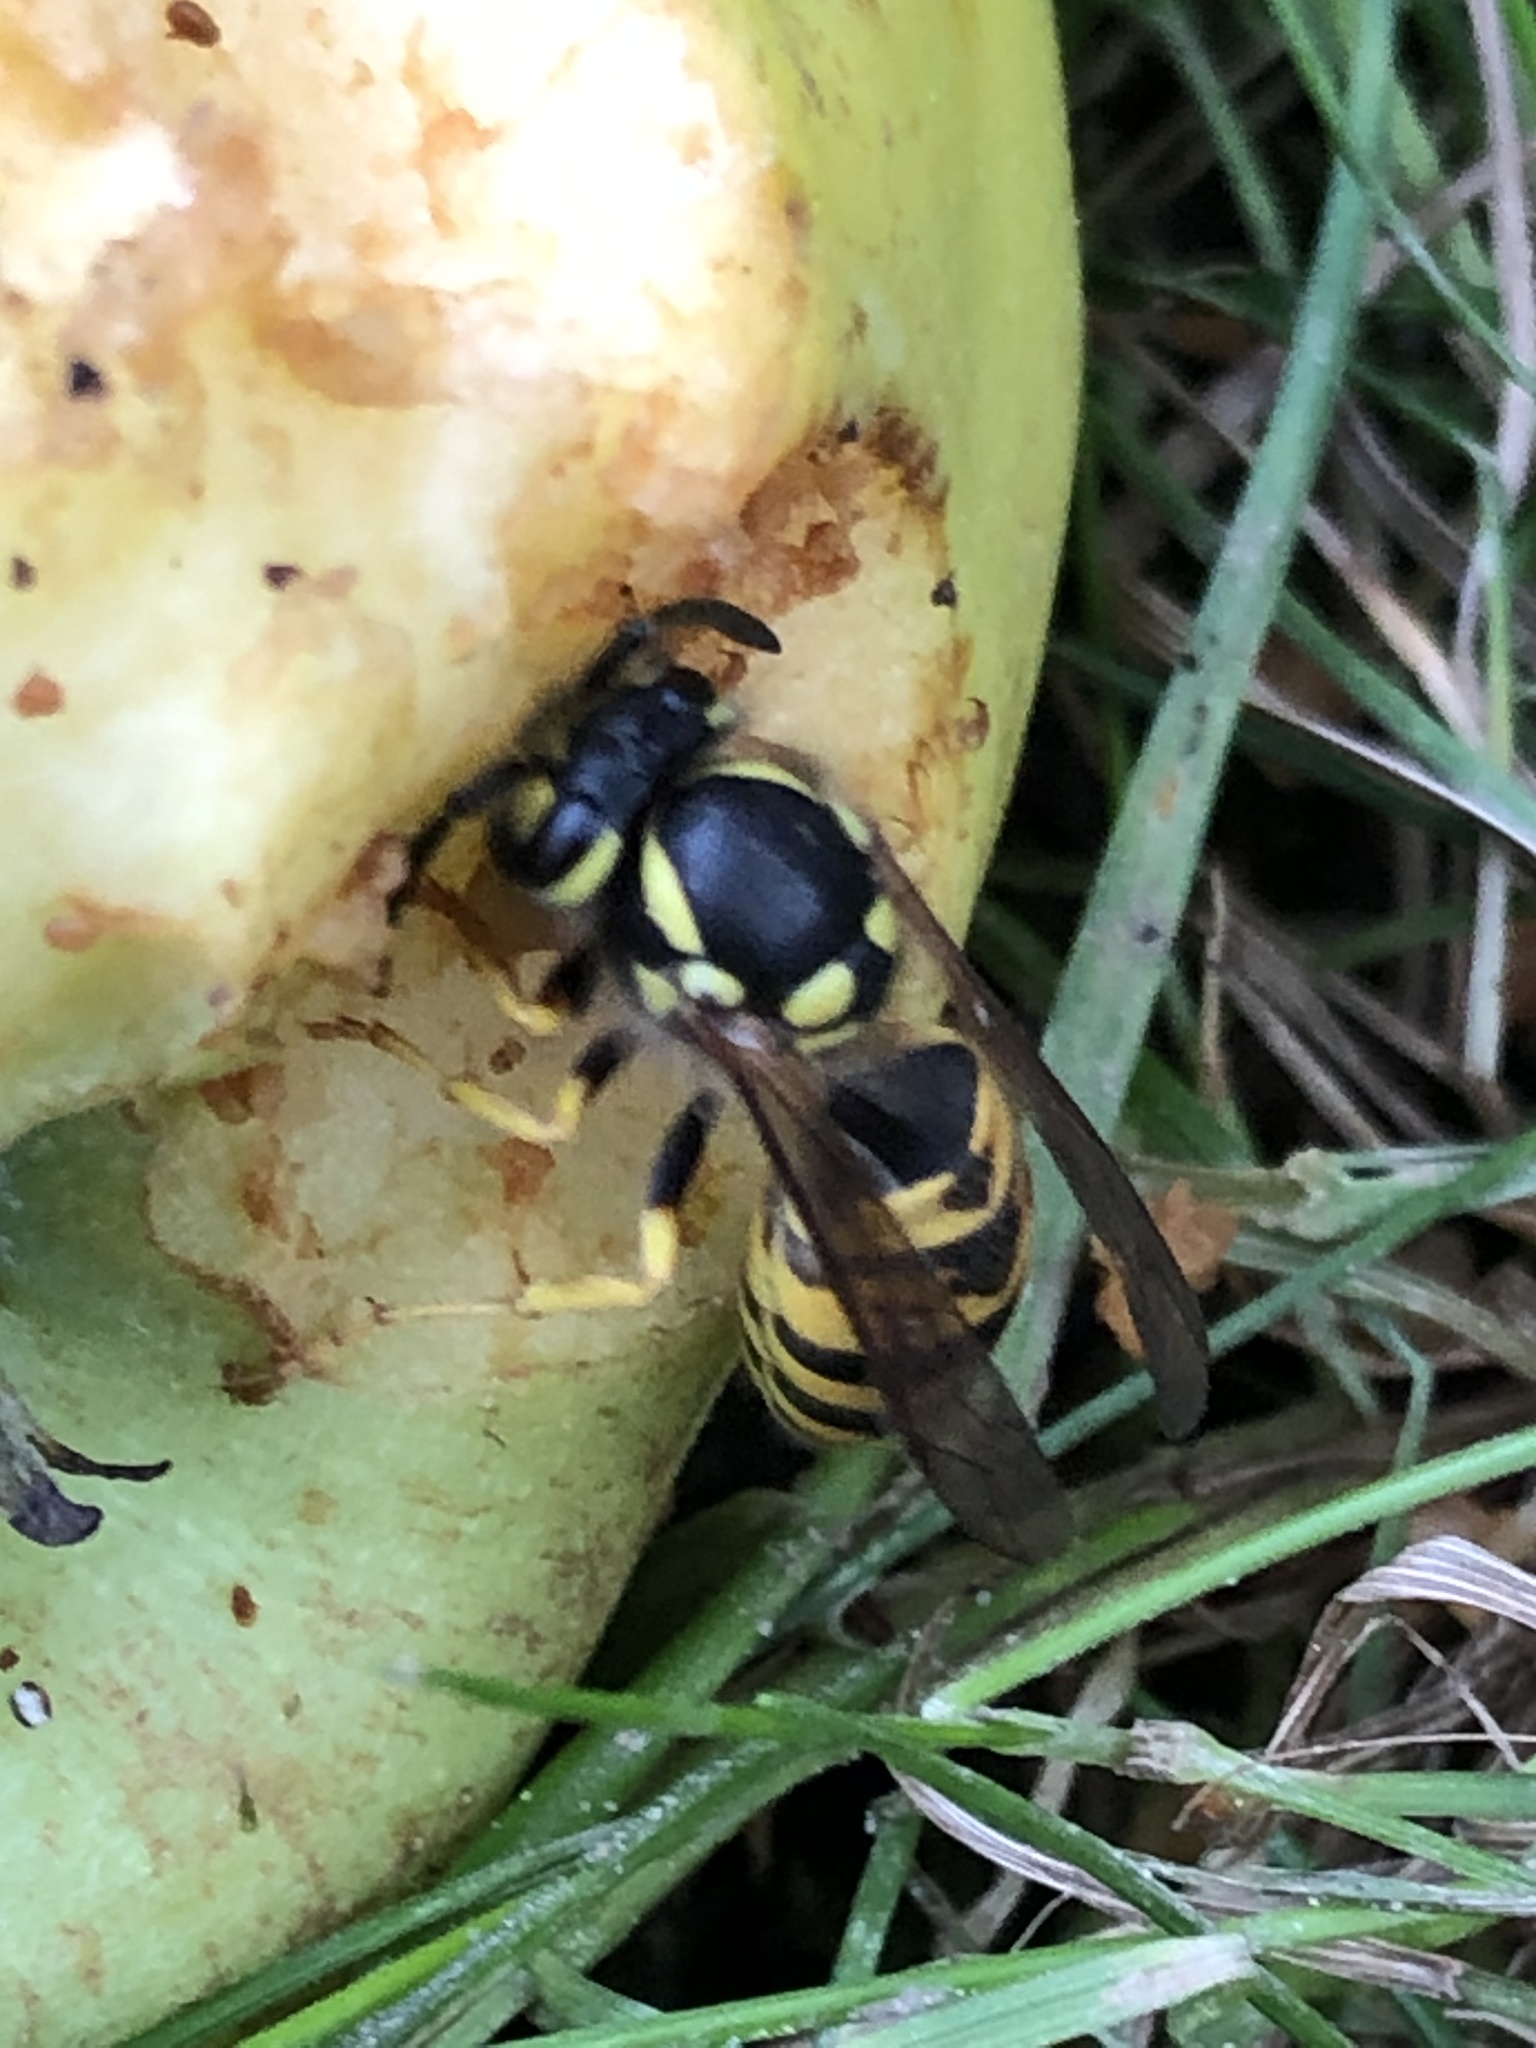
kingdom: Animalia
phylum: Arthropoda
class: Insecta
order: Hymenoptera
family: Vespidae
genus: Vespula
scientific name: Vespula germanica
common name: German wasp
